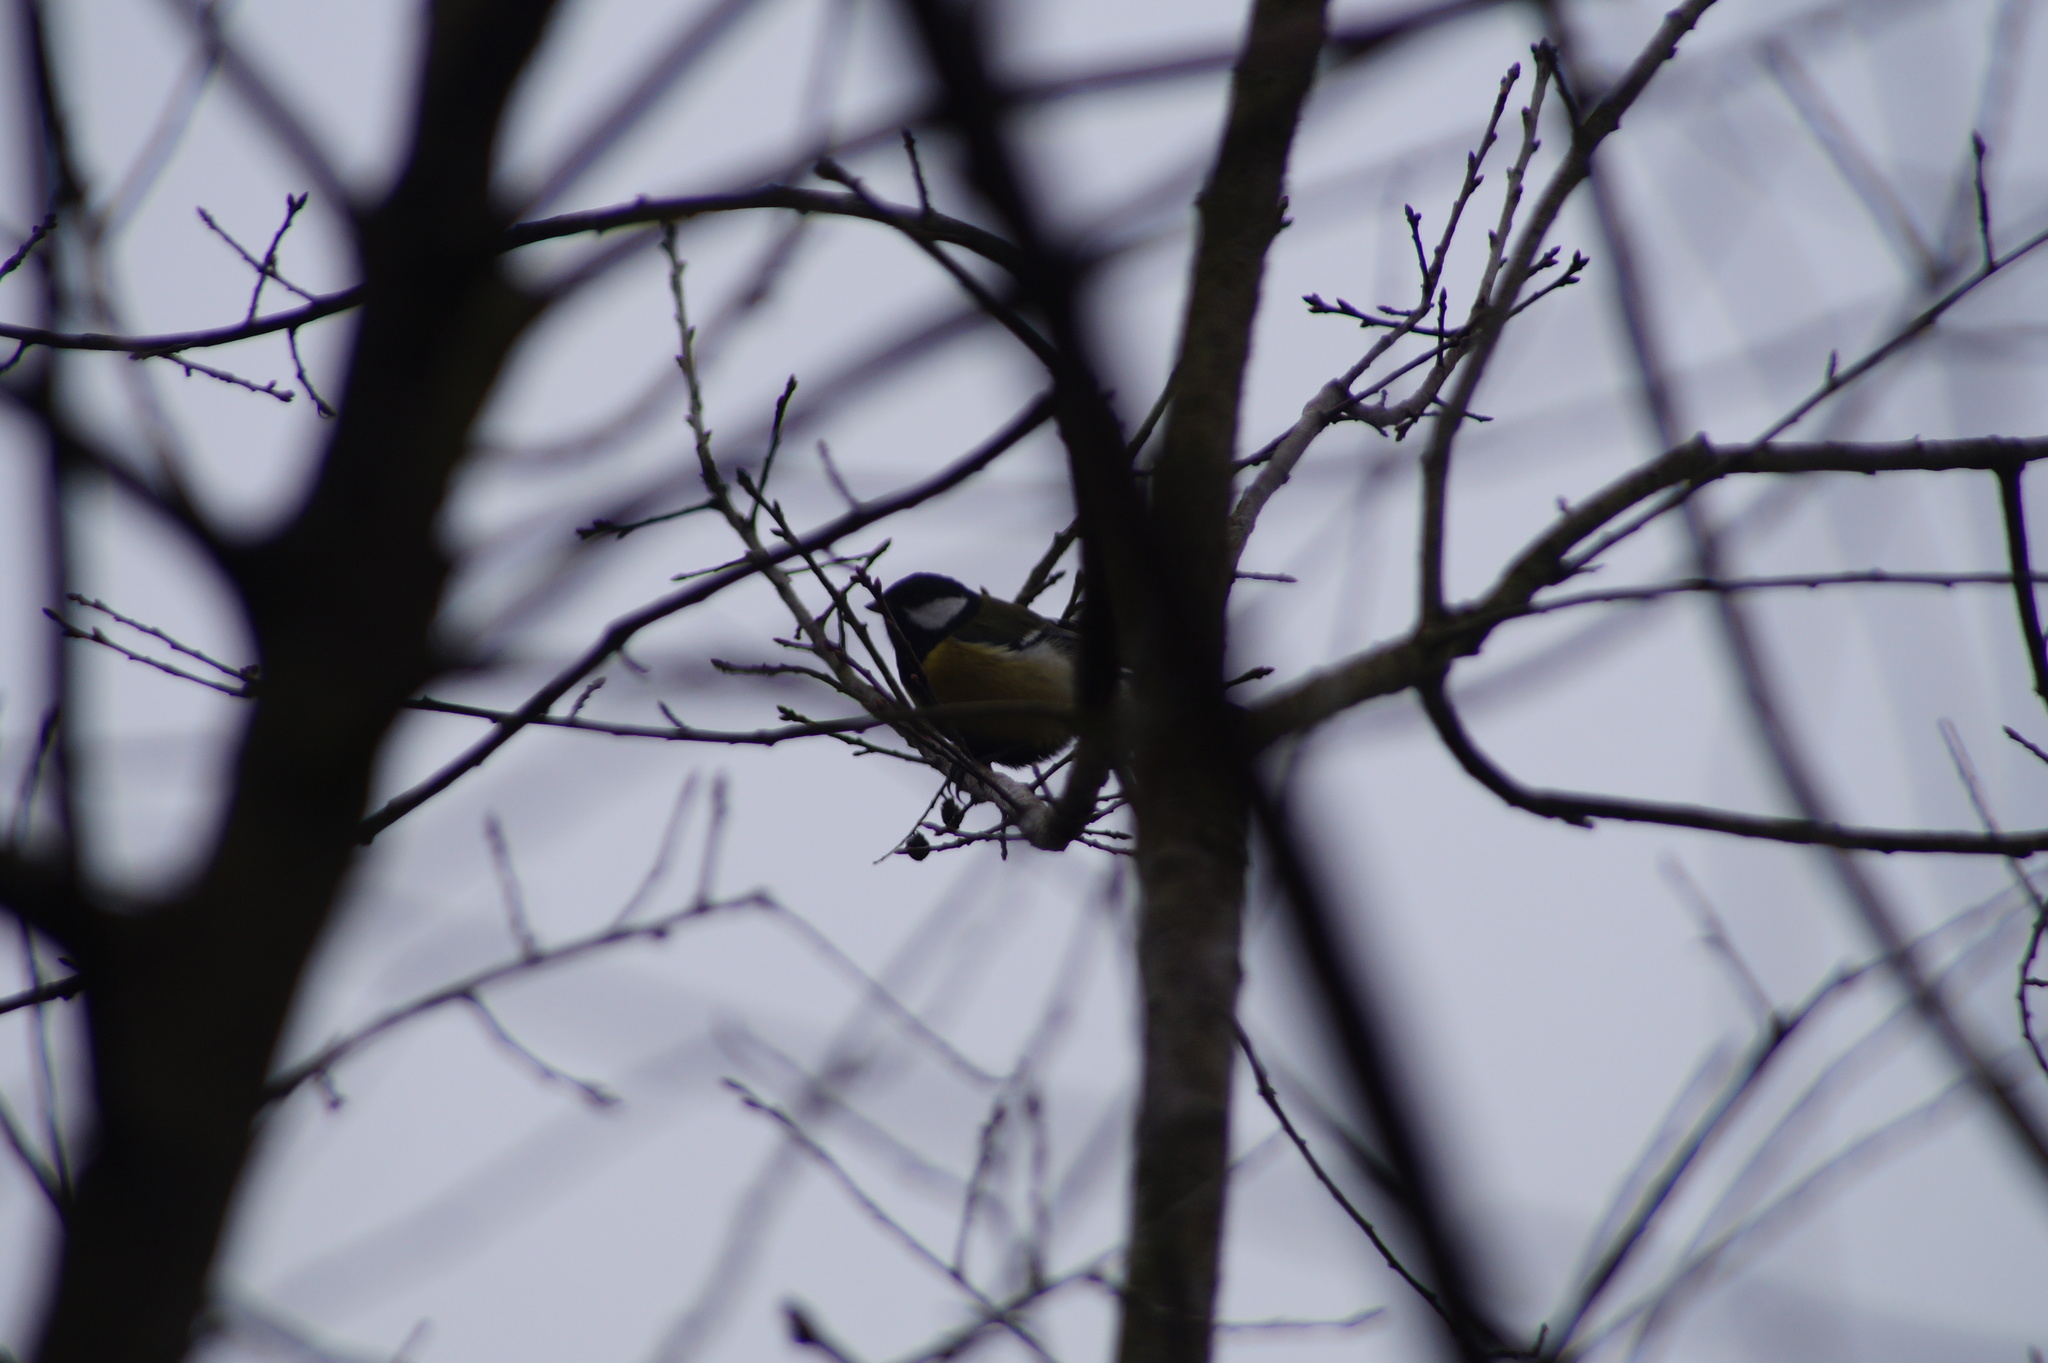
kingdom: Animalia
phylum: Chordata
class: Aves
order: Passeriformes
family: Paridae
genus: Parus
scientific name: Parus major
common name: Great tit
